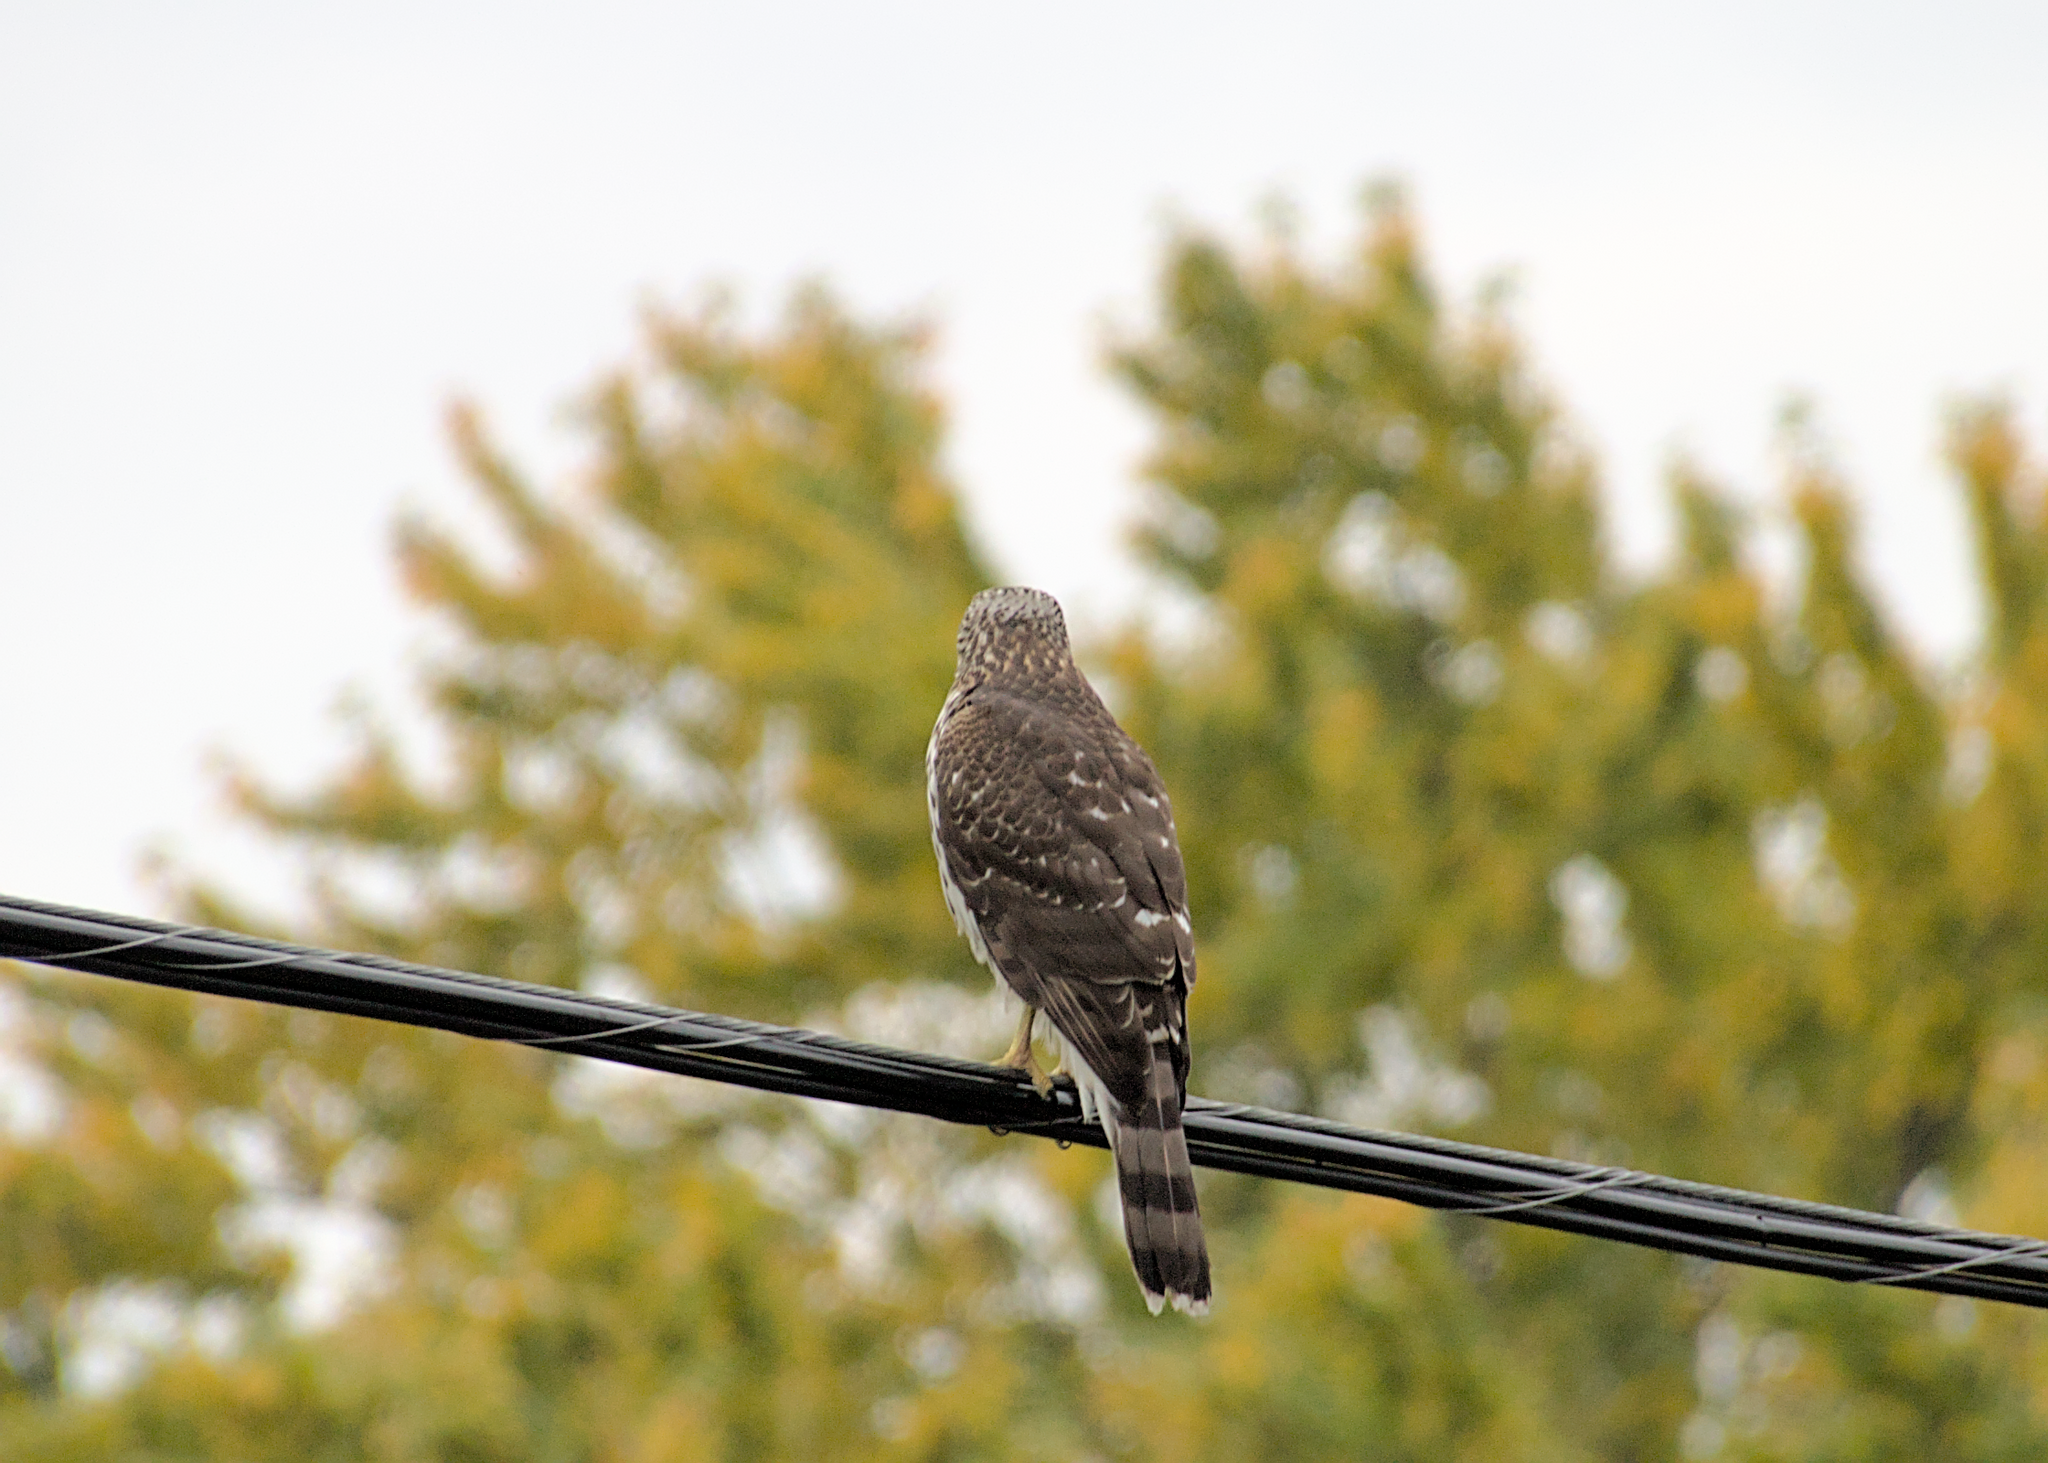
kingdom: Animalia
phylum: Chordata
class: Aves
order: Accipitriformes
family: Accipitridae
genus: Accipiter
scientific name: Accipiter cooperii
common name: Cooper's hawk
